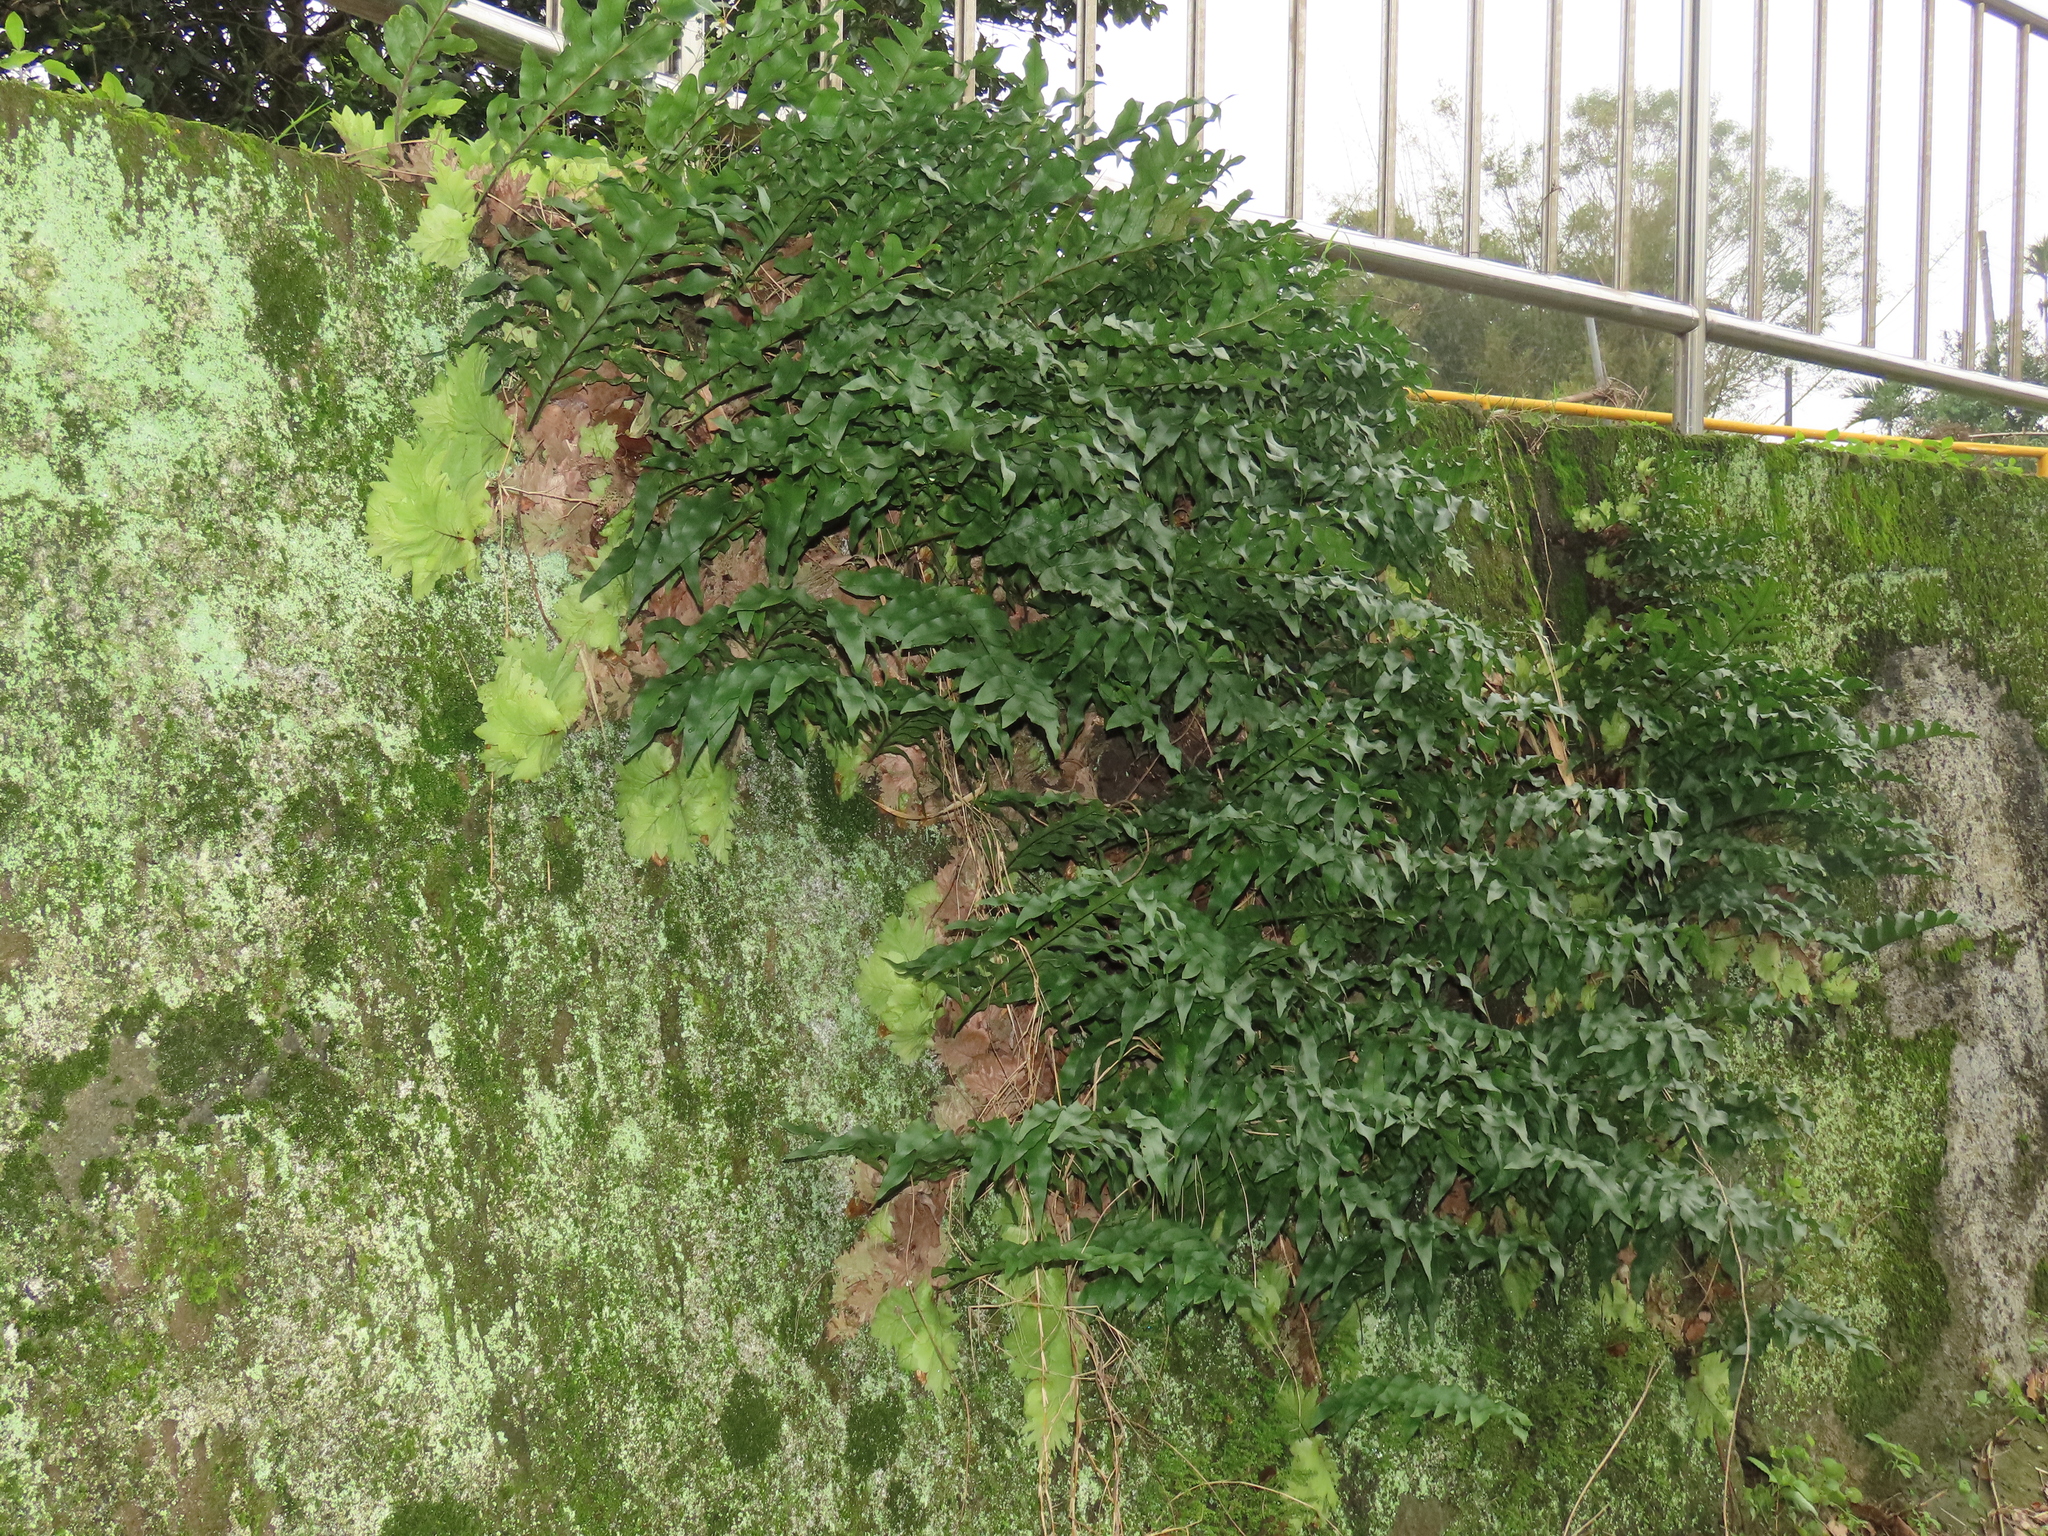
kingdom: Plantae
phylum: Tracheophyta
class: Polypodiopsida
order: Polypodiales
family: Polypodiaceae
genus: Drynaria
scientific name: Drynaria roosii
